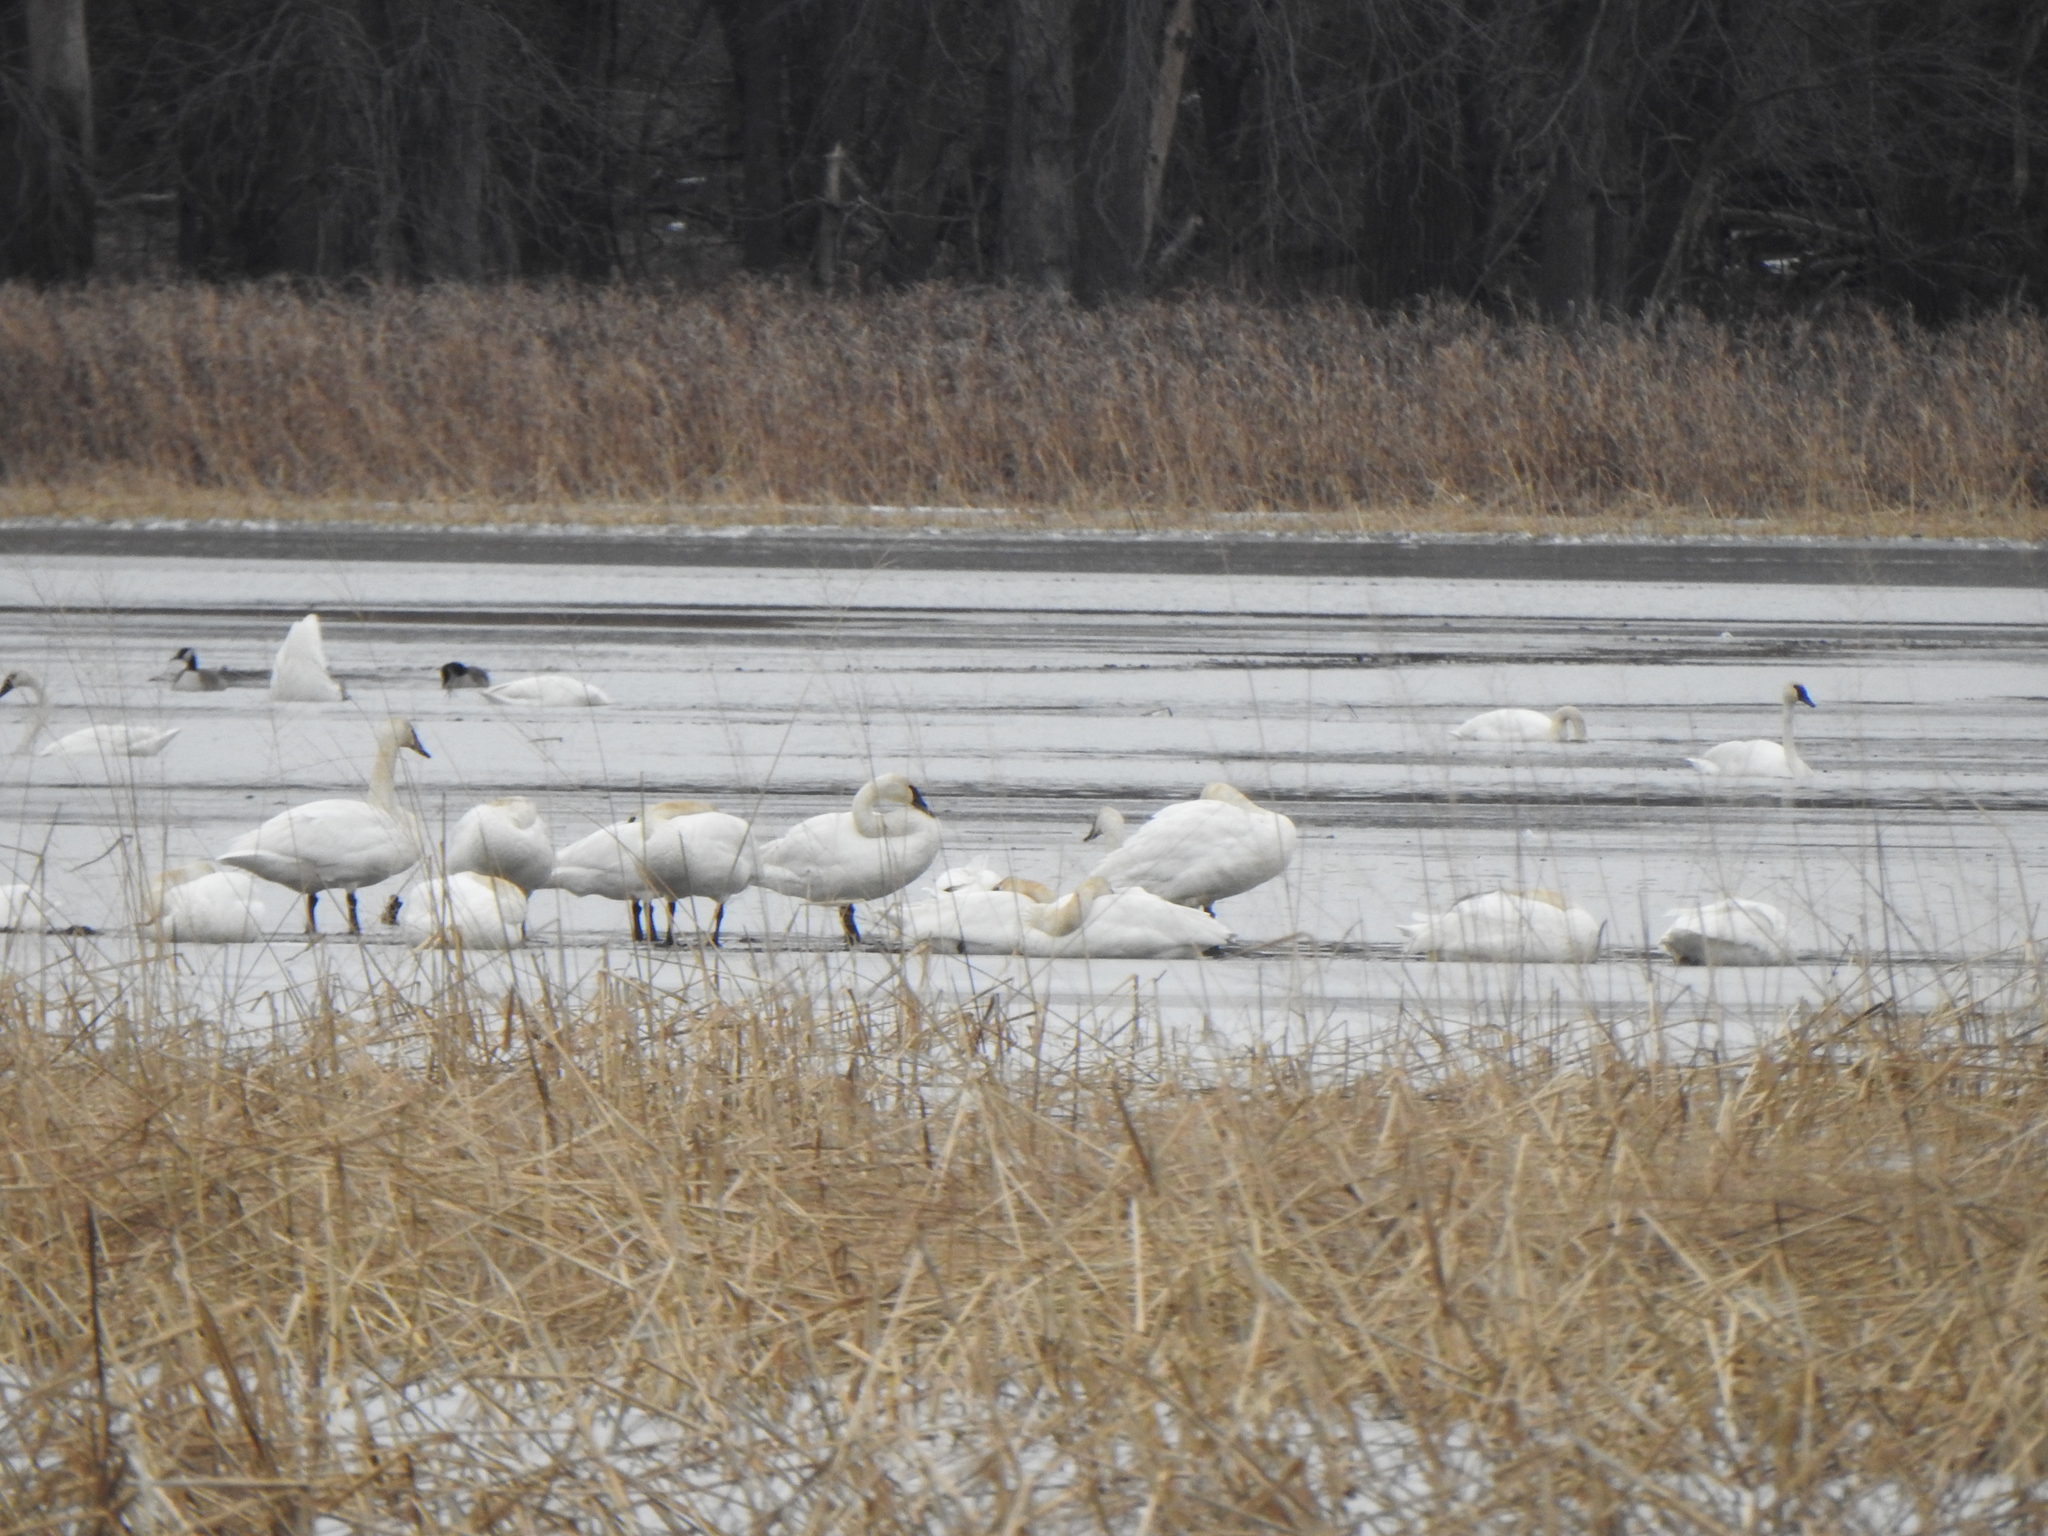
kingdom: Animalia
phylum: Chordata
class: Aves
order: Anseriformes
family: Anatidae
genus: Cygnus
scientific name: Cygnus buccinator
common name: Trumpeter swan
